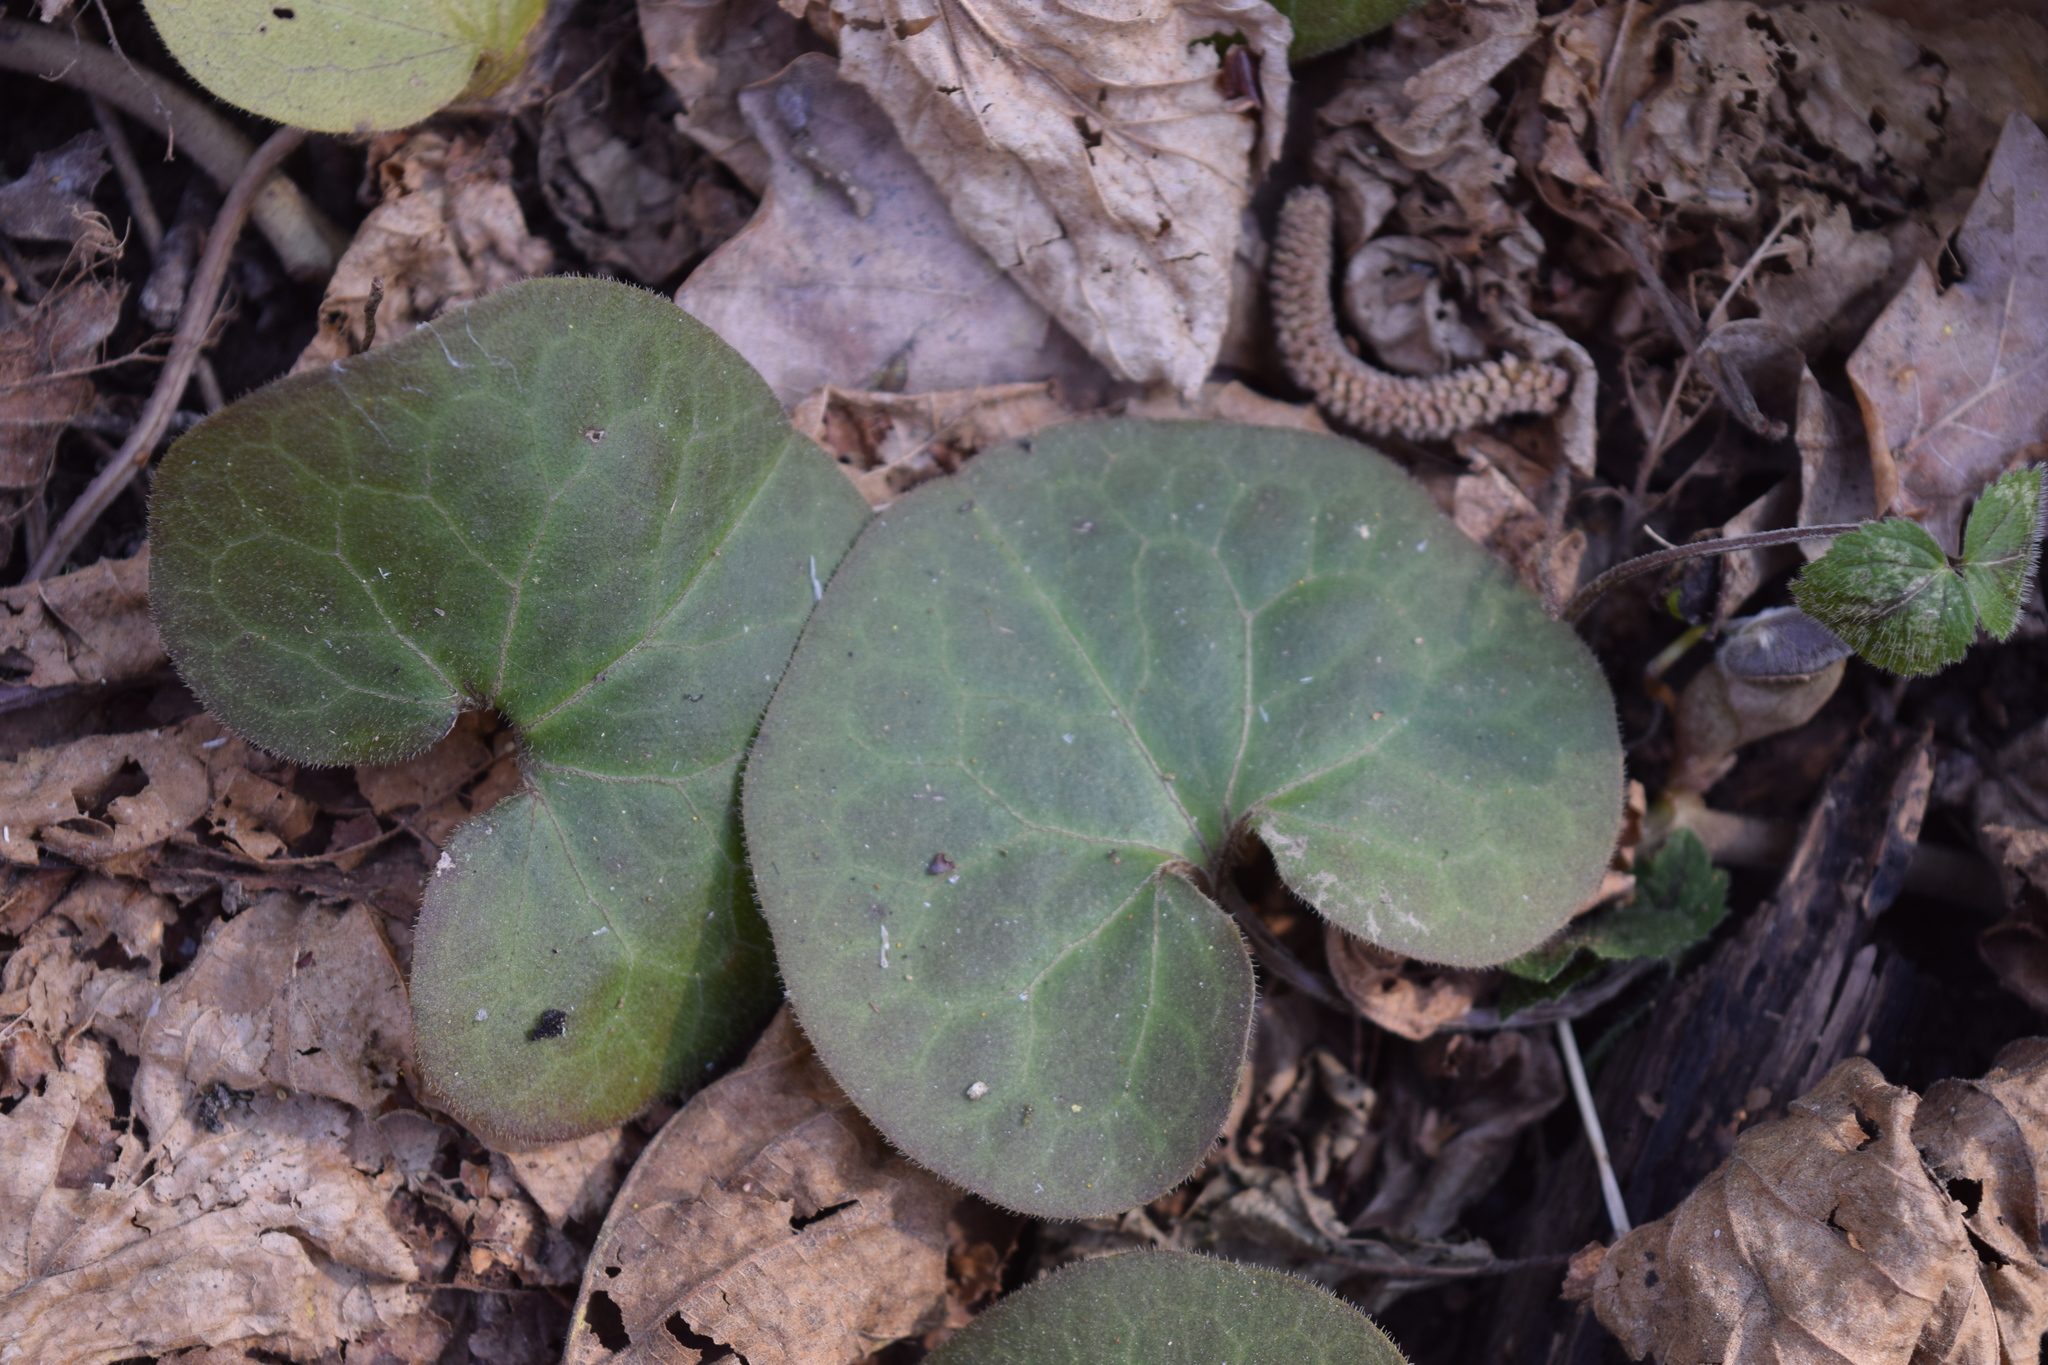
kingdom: Plantae
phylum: Tracheophyta
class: Magnoliopsida
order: Piperales
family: Aristolochiaceae
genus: Asarum
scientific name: Asarum europaeum
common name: Asarabacca
